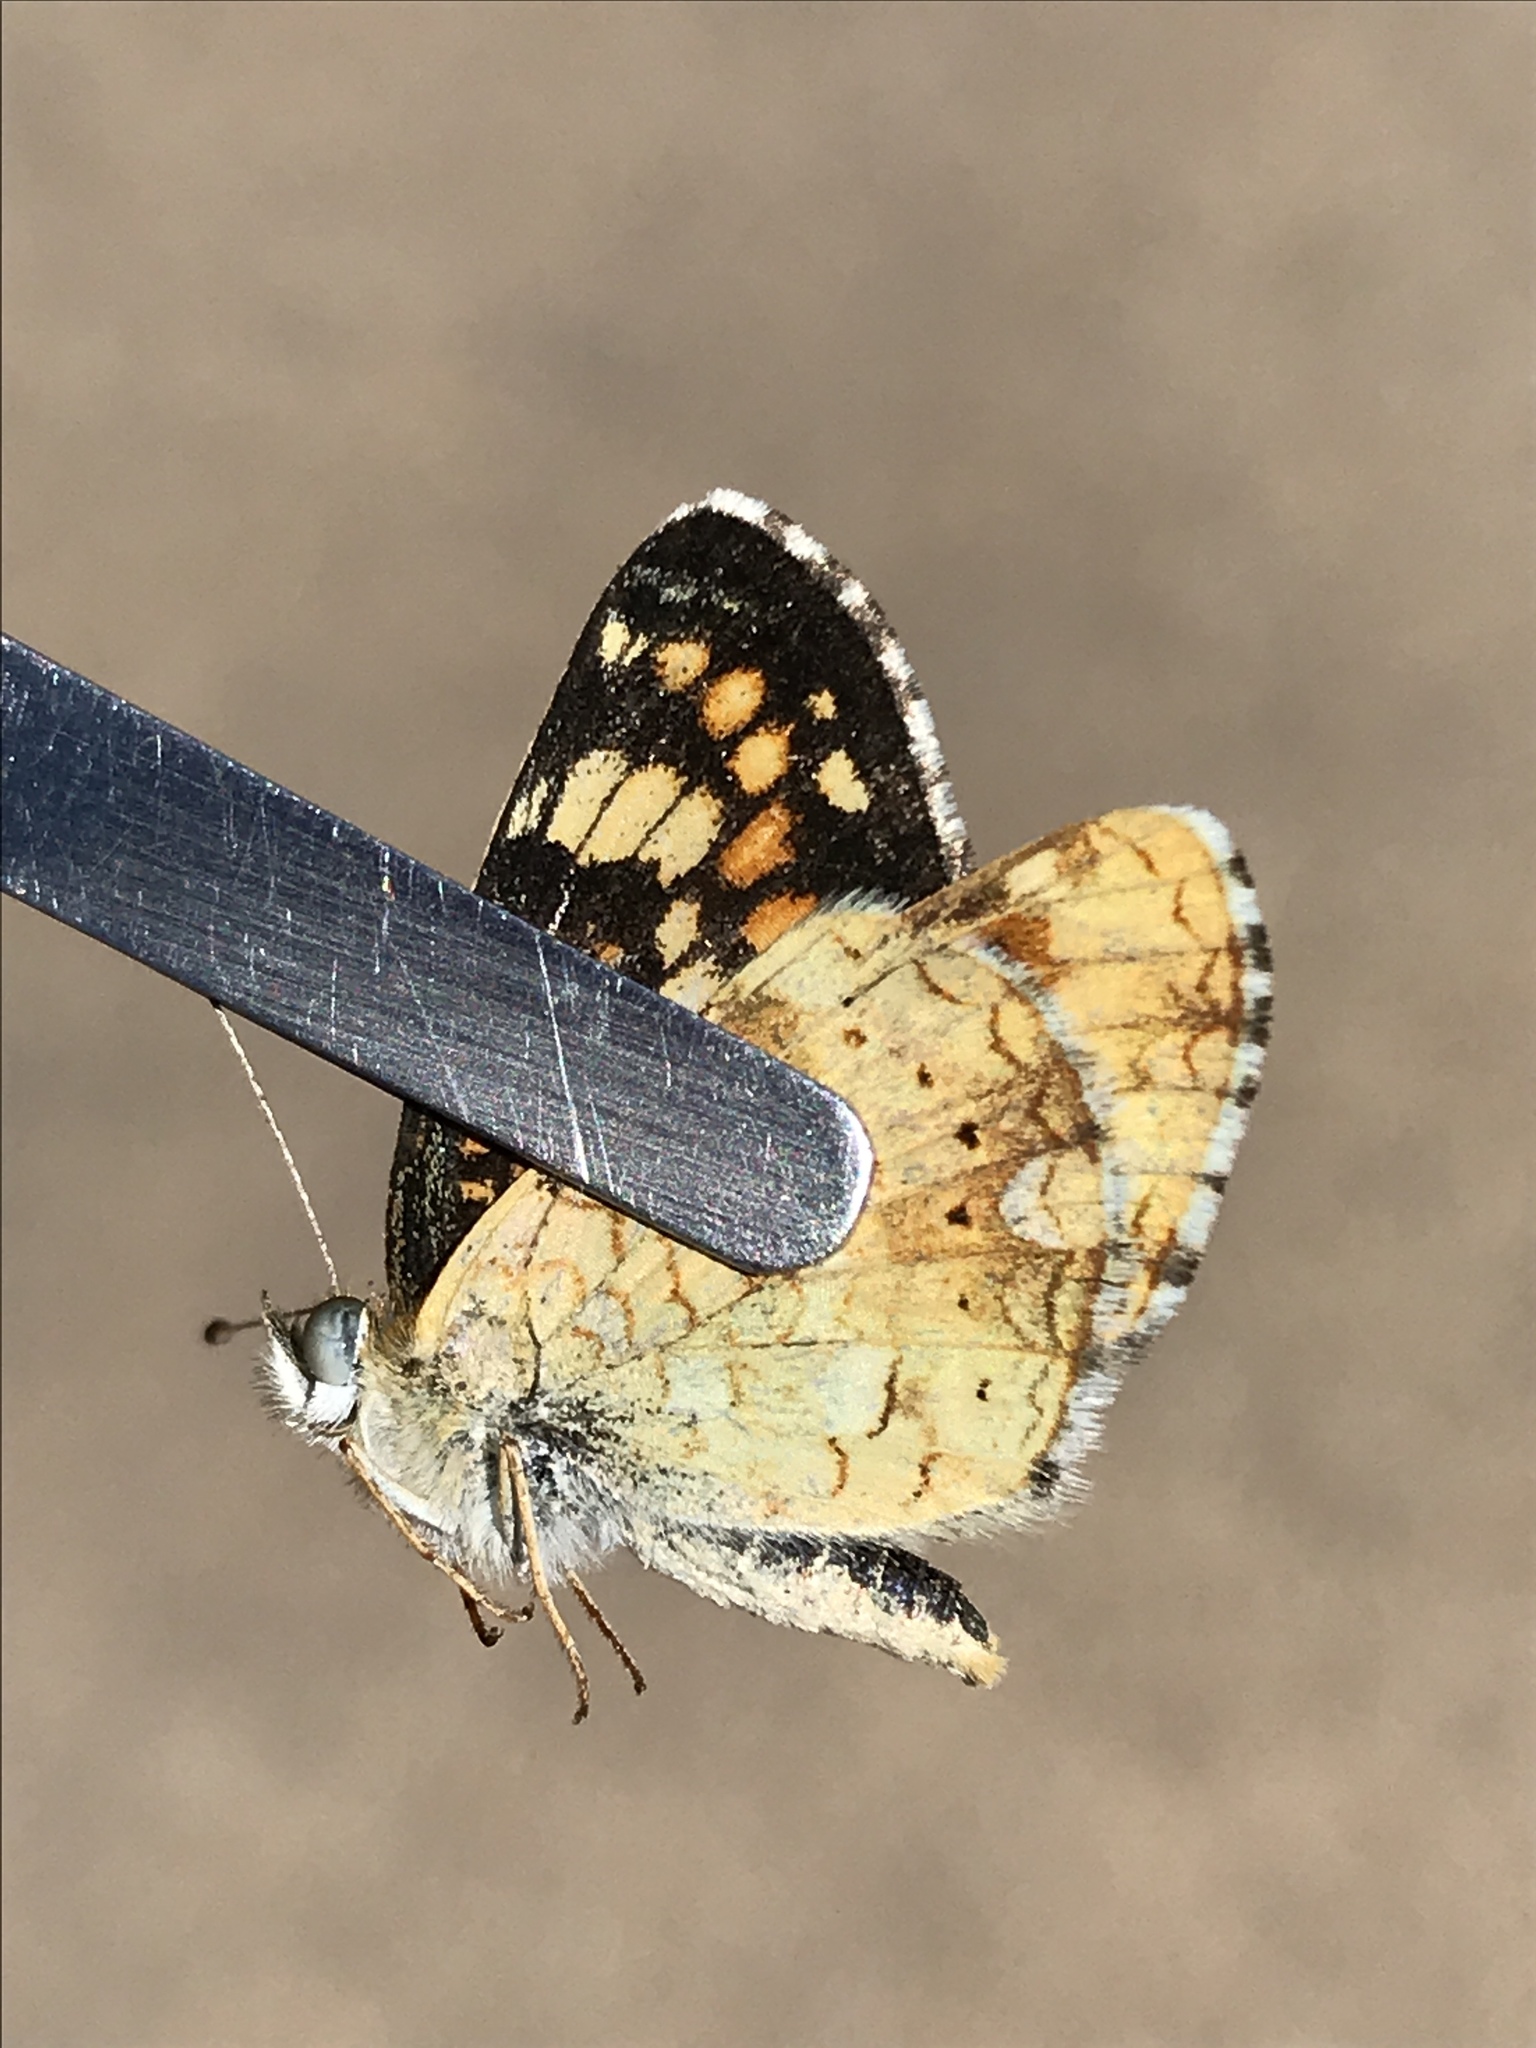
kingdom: Animalia
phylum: Arthropoda
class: Insecta
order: Lepidoptera
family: Nymphalidae
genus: Phyciodes
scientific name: Phyciodes tharos
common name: Pearl crescent
